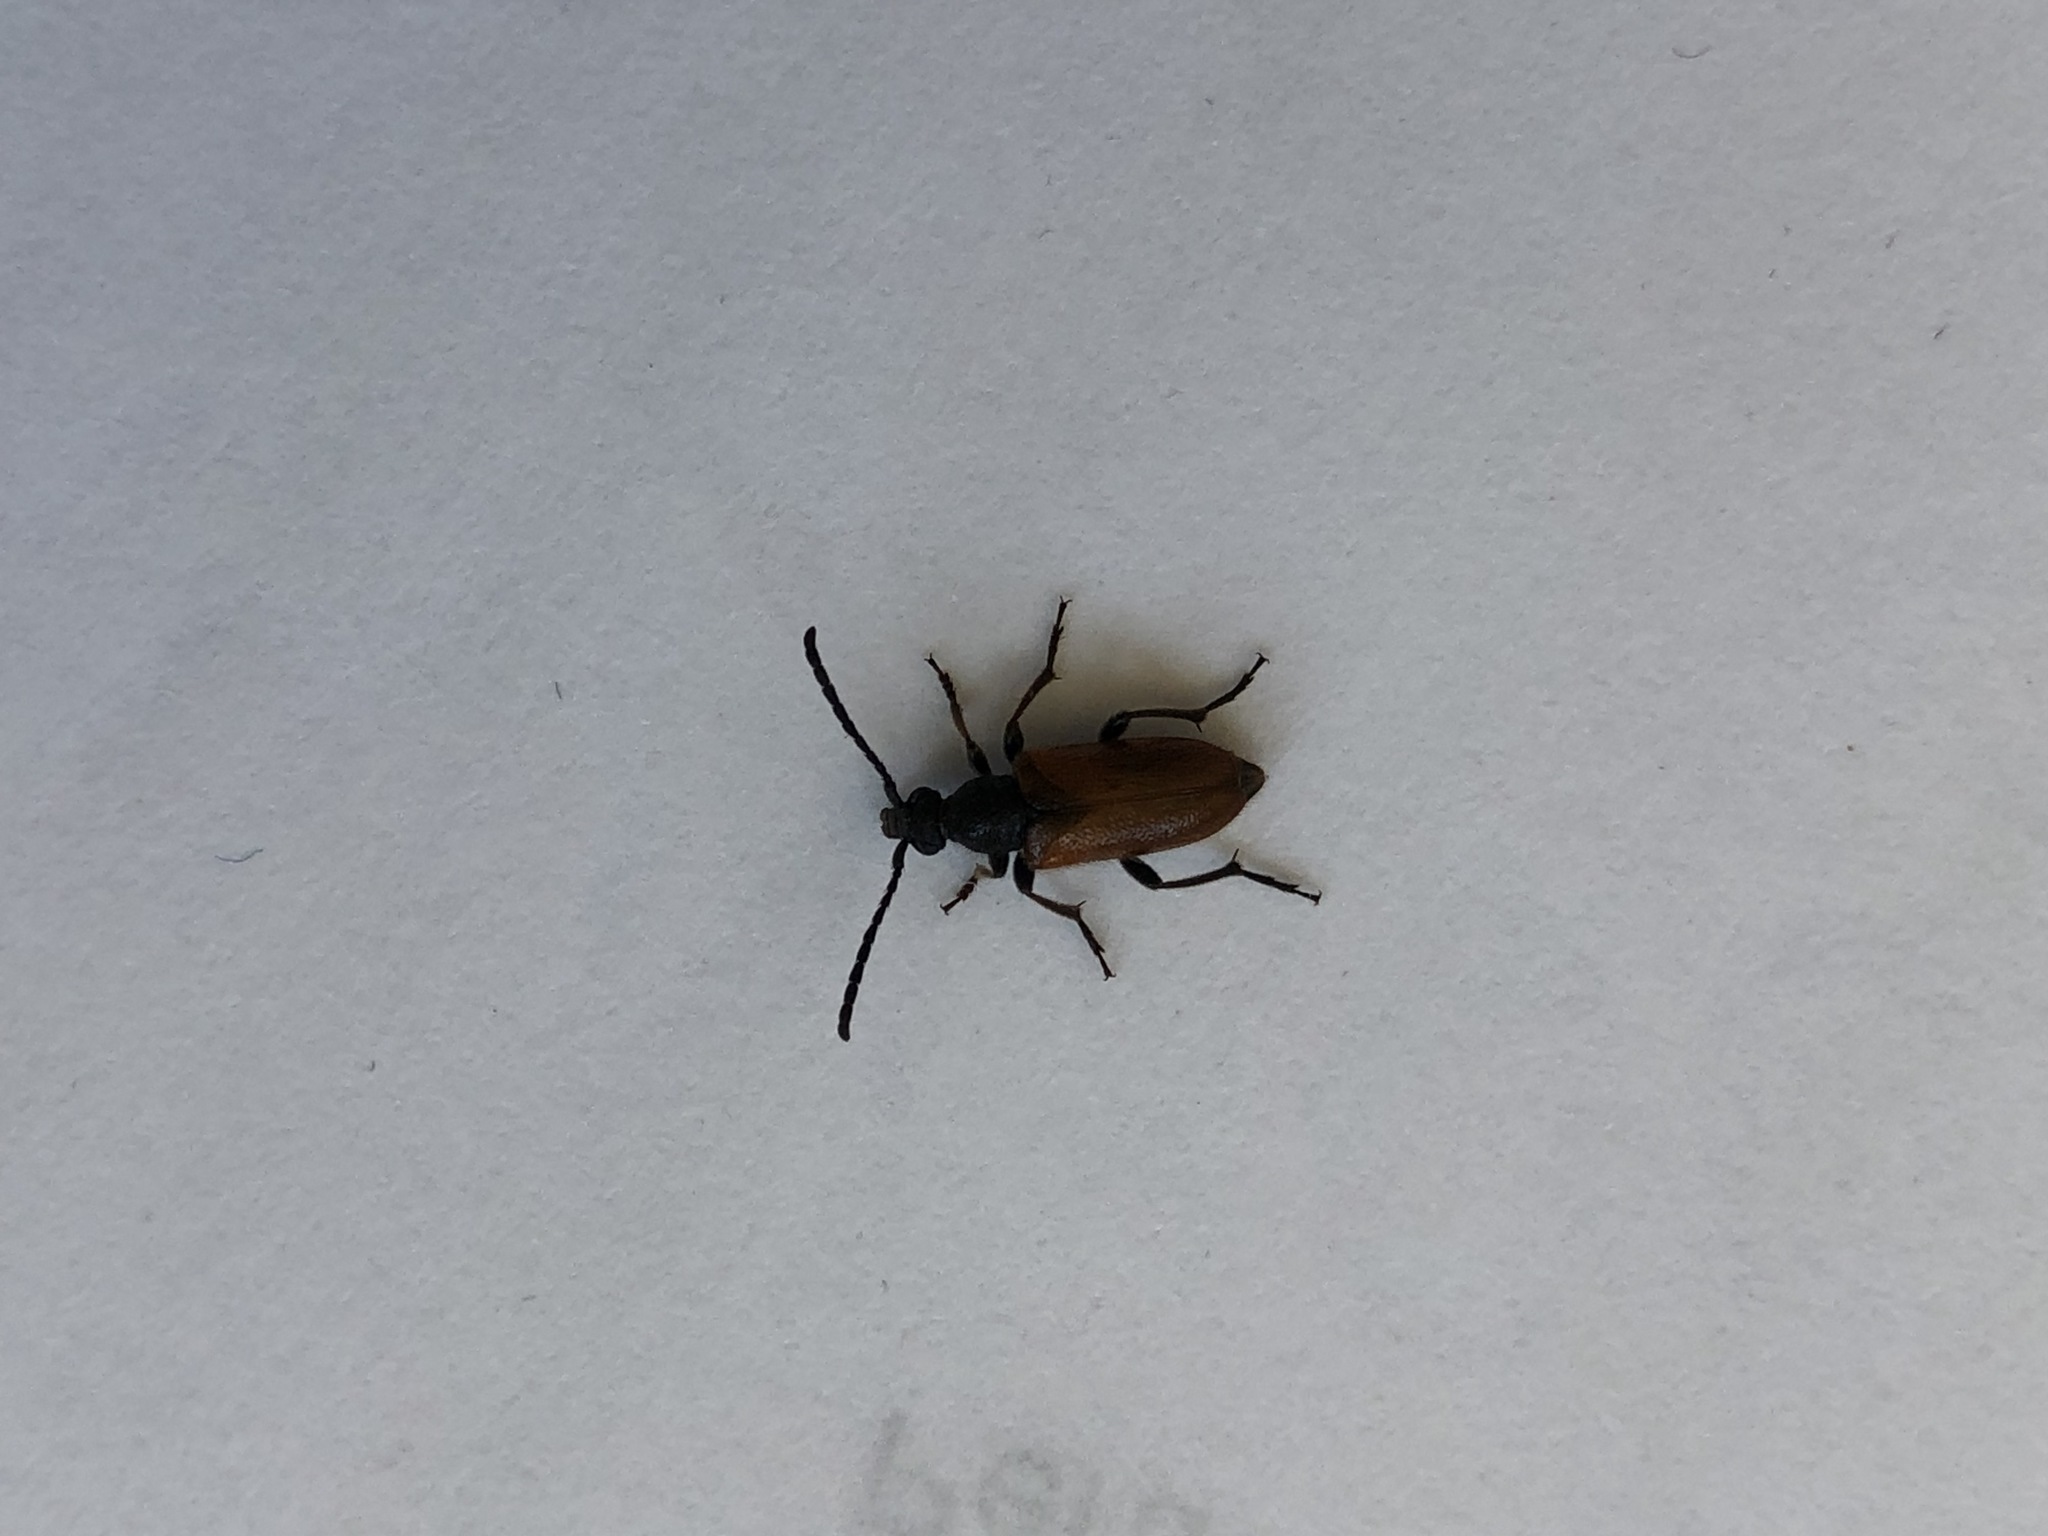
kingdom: Animalia
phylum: Arthropoda
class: Insecta
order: Coleoptera
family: Cerambycidae
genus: Pseudovadonia
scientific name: Pseudovadonia livida
